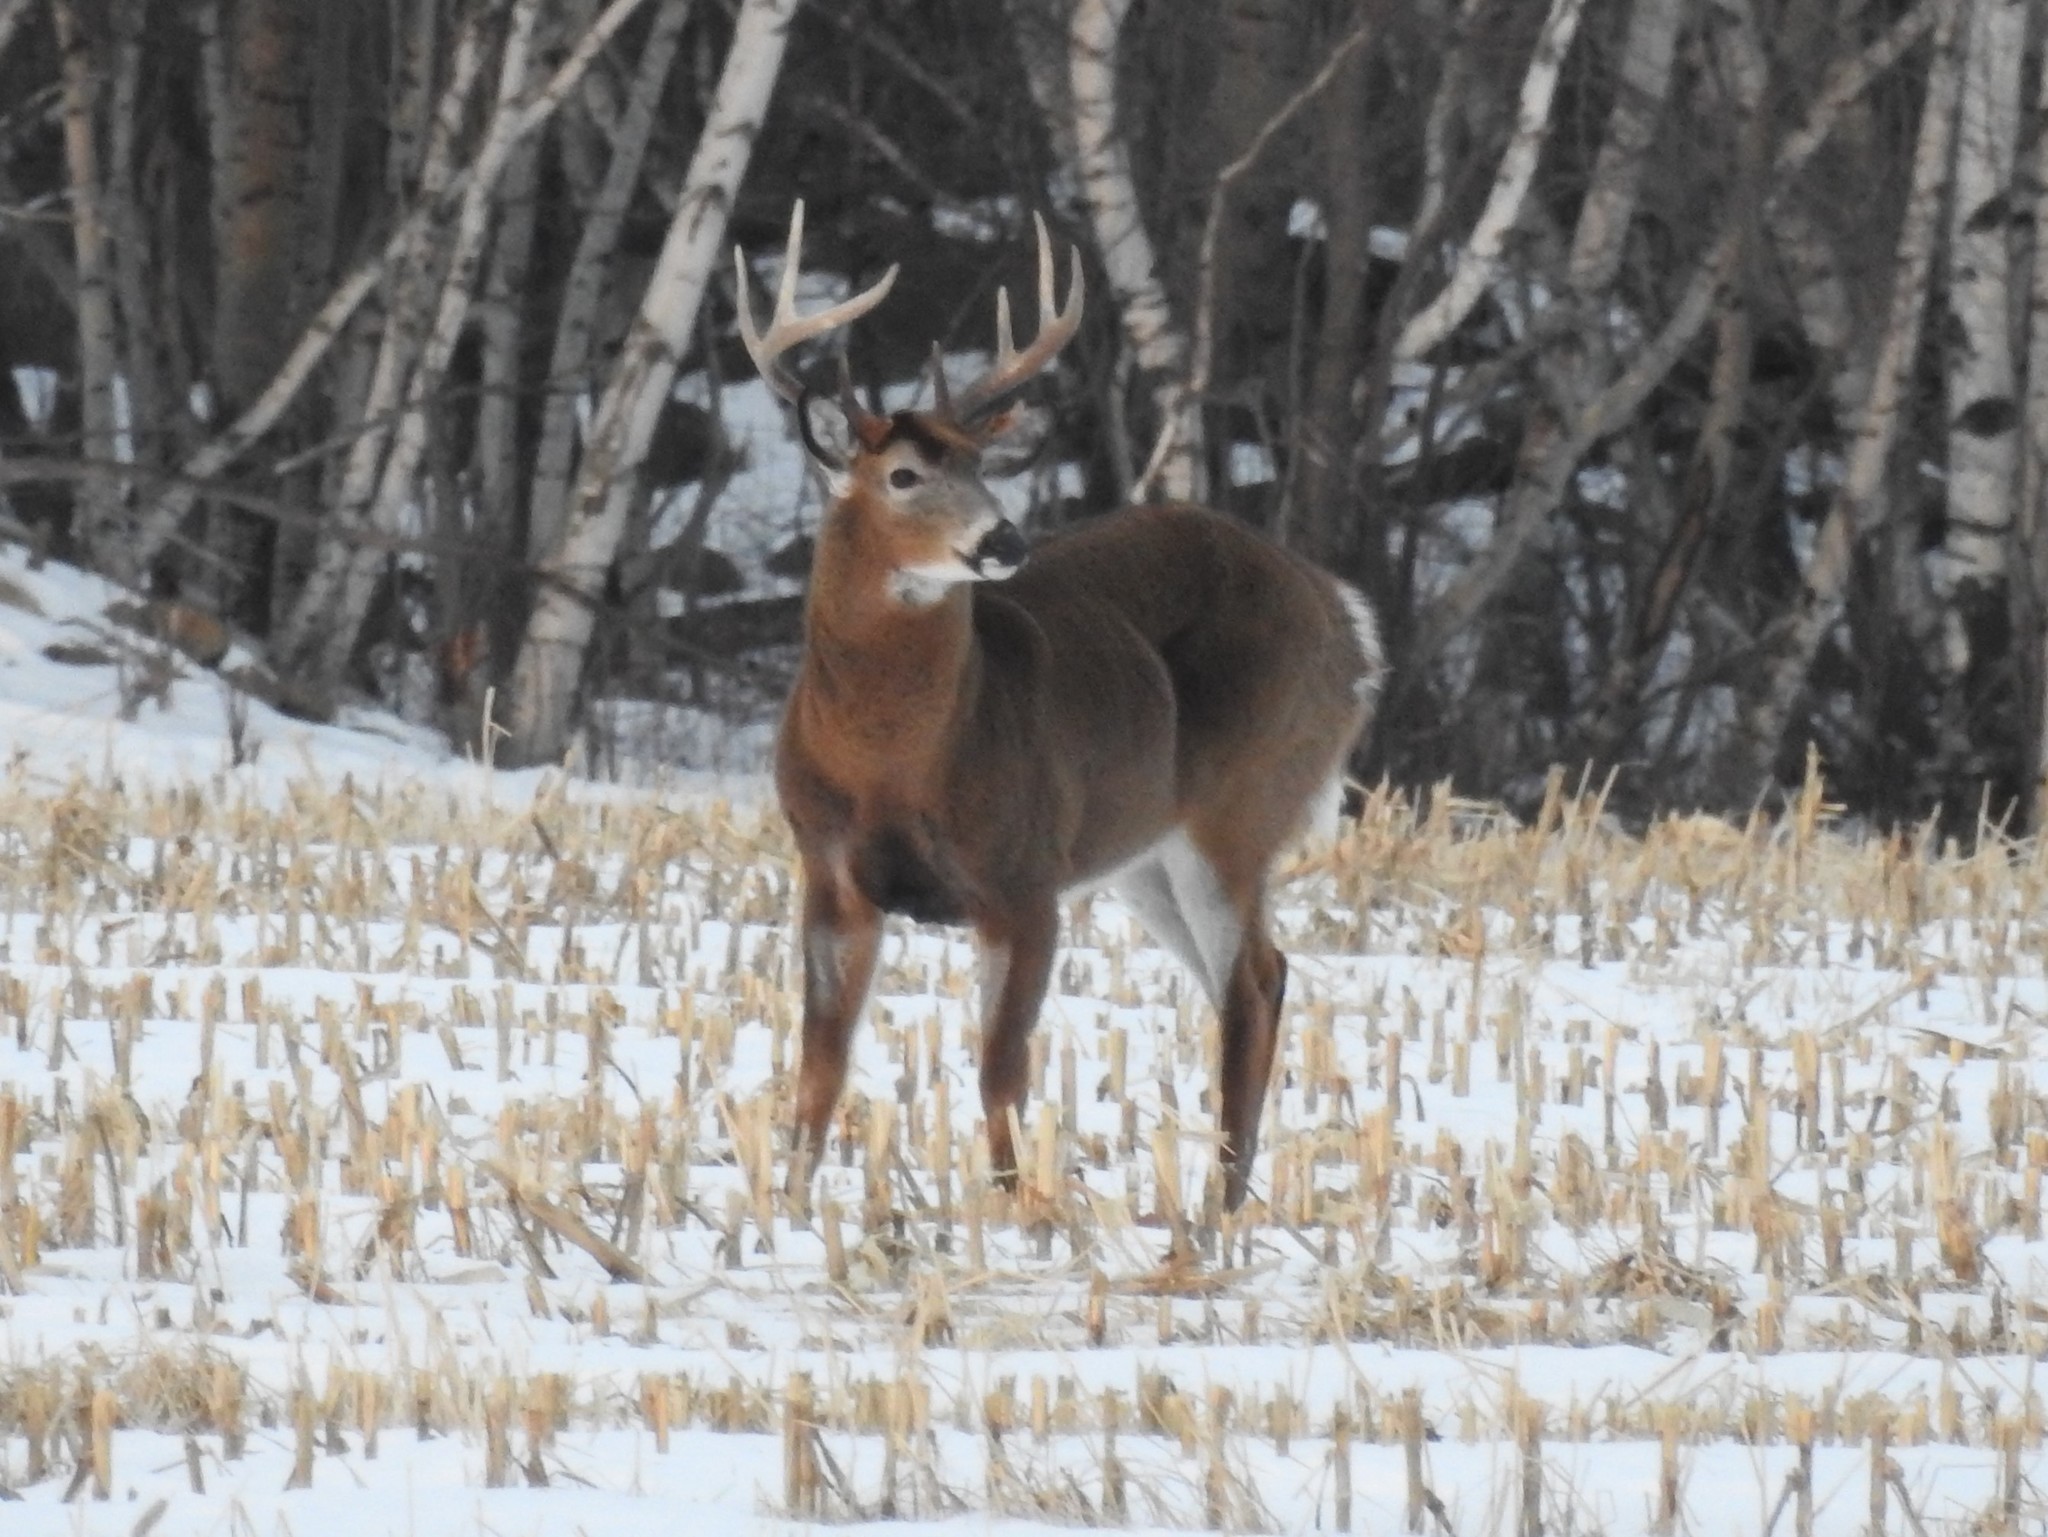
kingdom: Animalia
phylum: Chordata
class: Mammalia
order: Artiodactyla
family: Cervidae
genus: Odocoileus
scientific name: Odocoileus virginianus
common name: White-tailed deer
